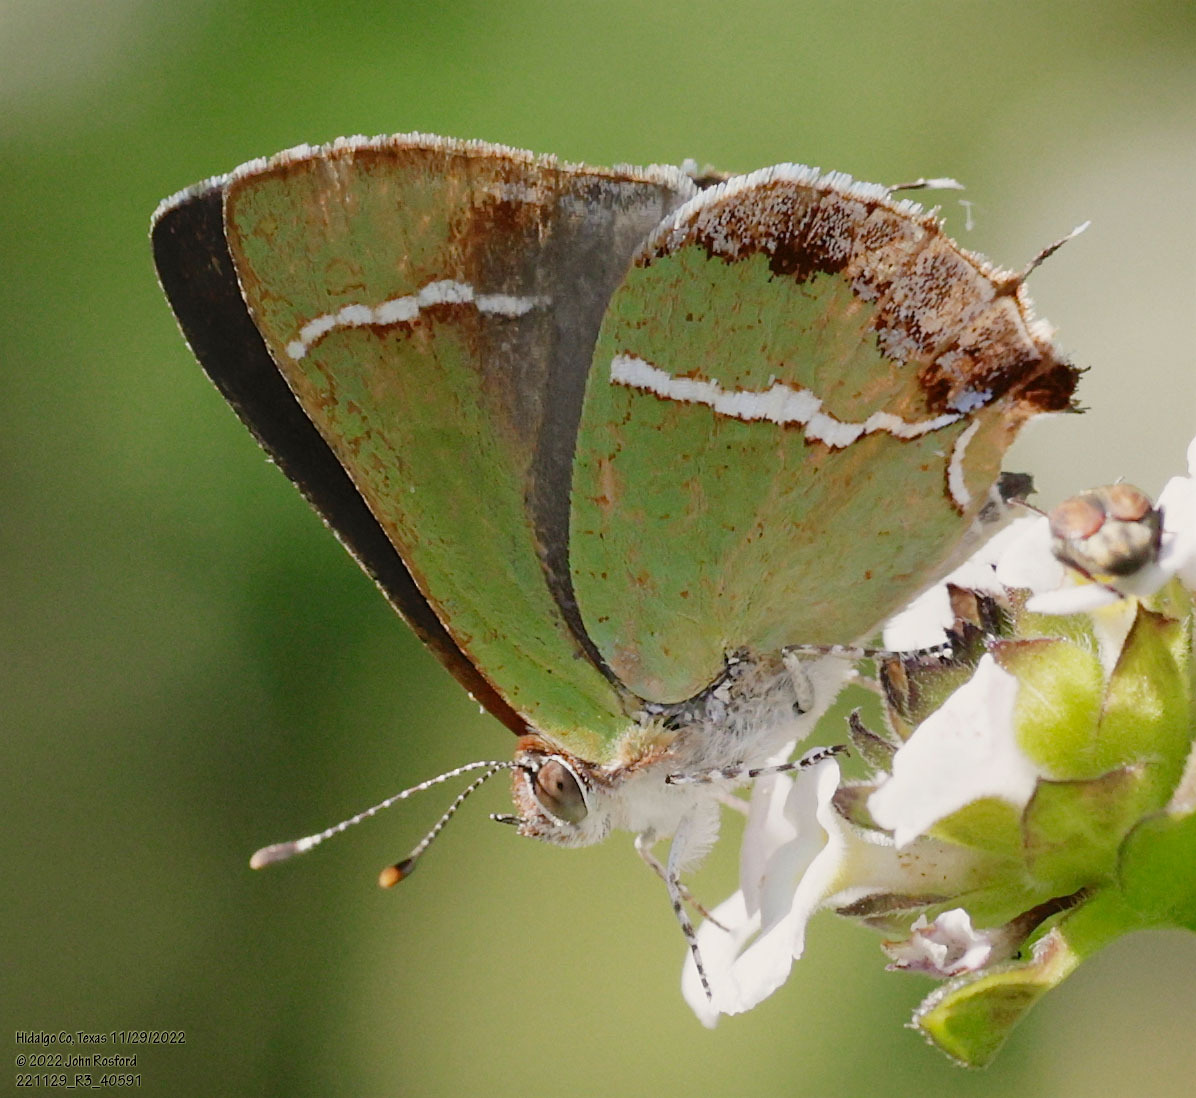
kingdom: Animalia
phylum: Arthropoda
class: Insecta
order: Lepidoptera
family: Lycaenidae
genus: Chlorostrymon
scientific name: Chlorostrymon simaethis
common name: Silver-banded hairstreak
